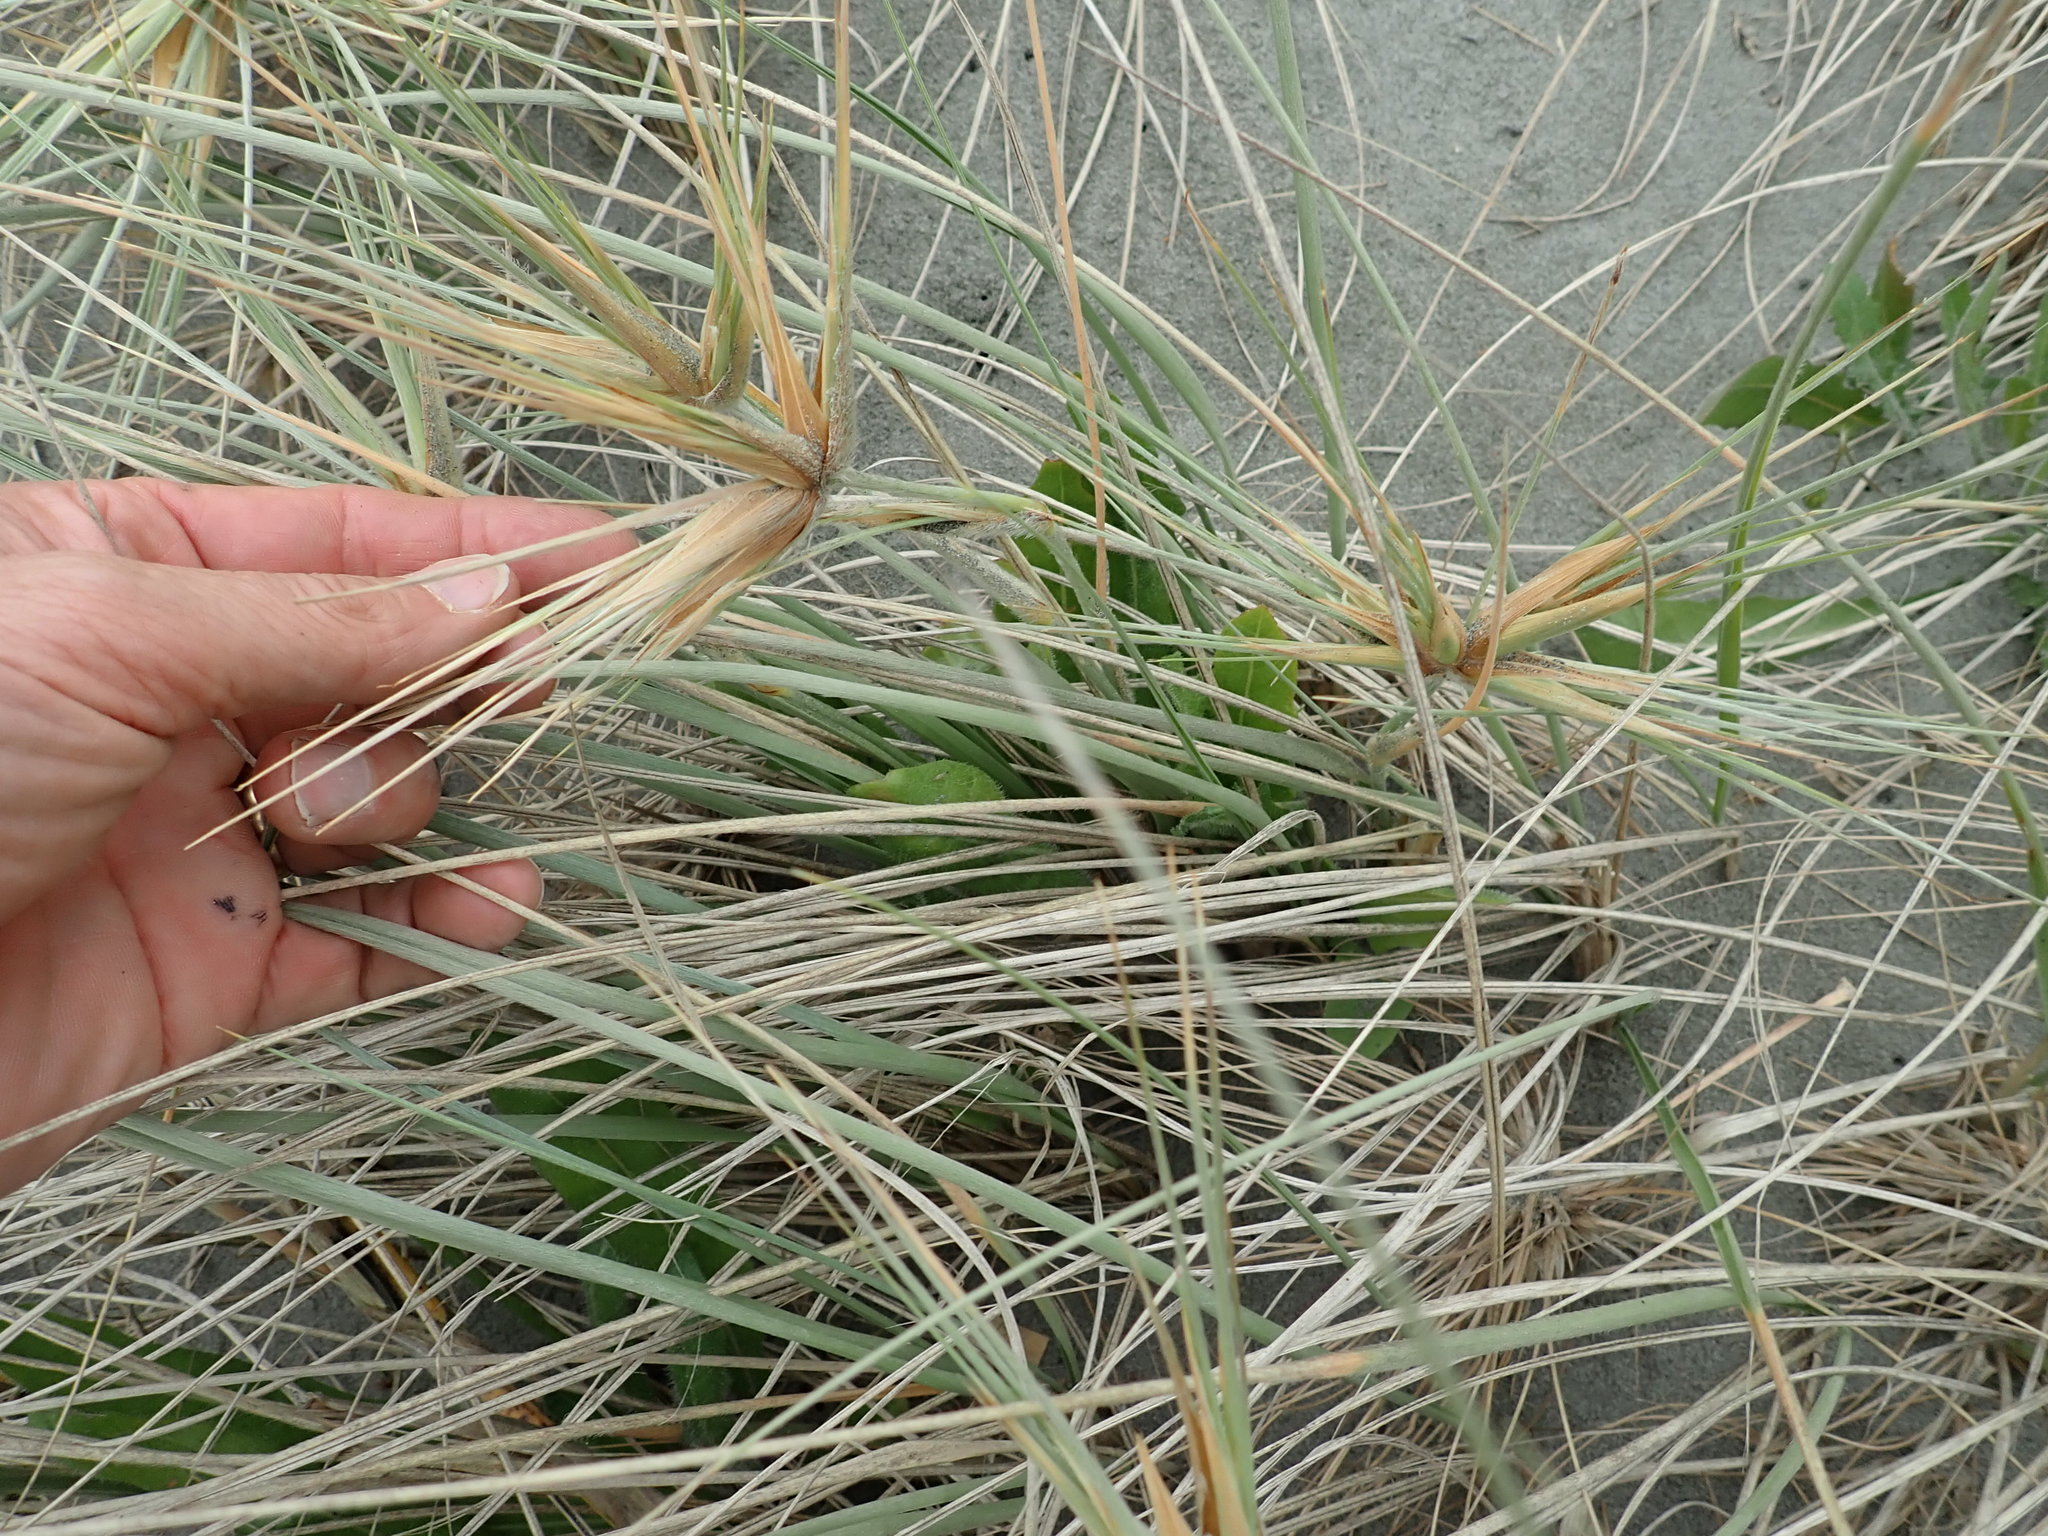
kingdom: Plantae
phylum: Tracheophyta
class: Liliopsida
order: Poales
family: Poaceae
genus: Spinifex
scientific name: Spinifex sericeus
